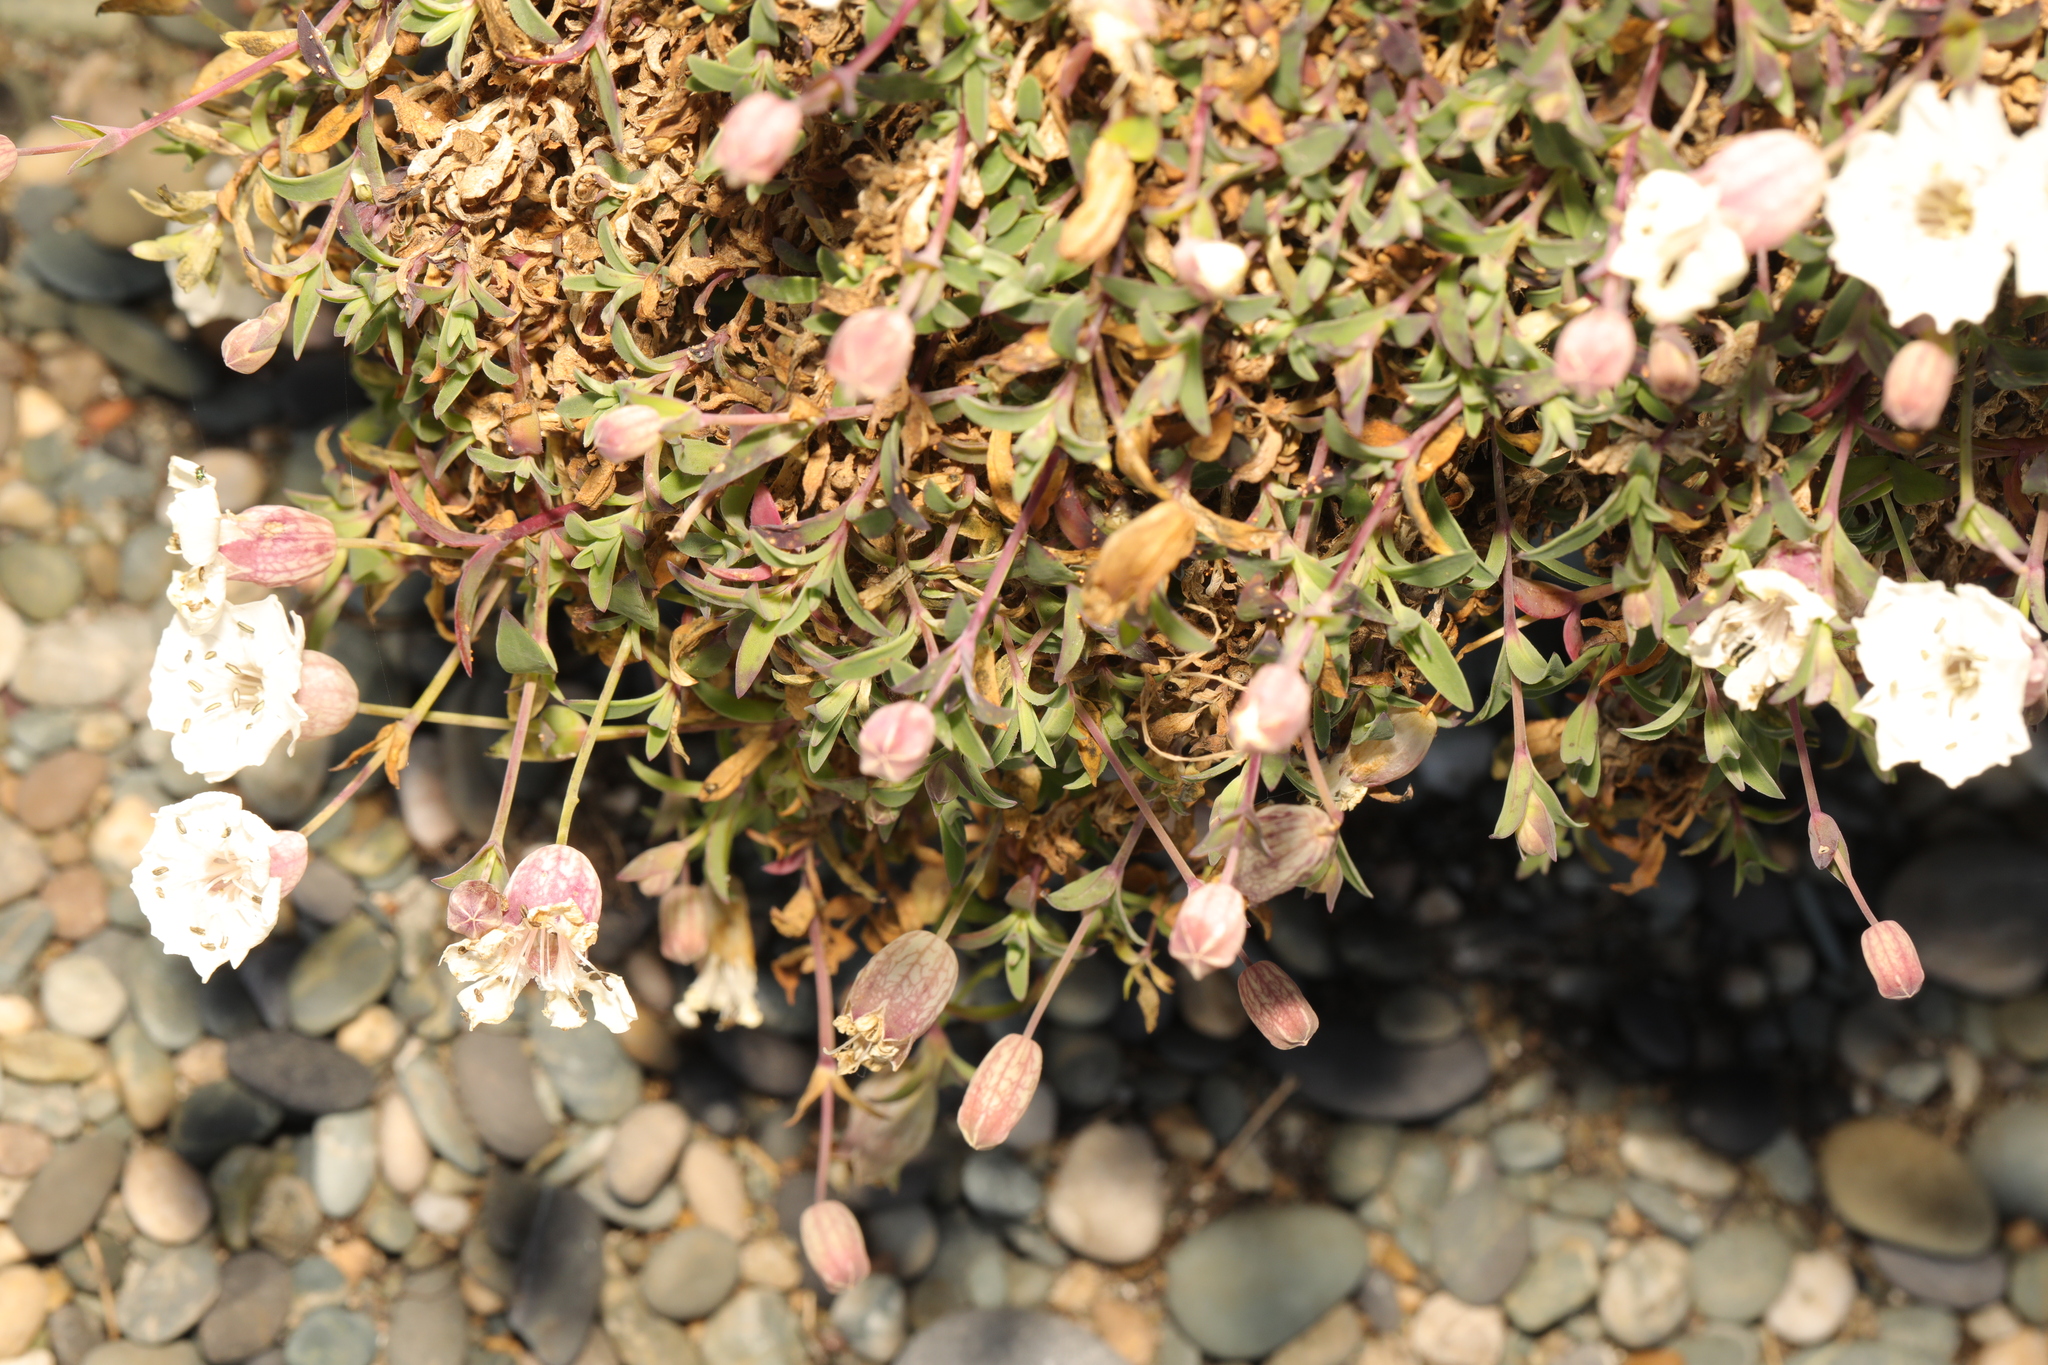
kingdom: Plantae
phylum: Tracheophyta
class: Magnoliopsida
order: Caryophyllales
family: Caryophyllaceae
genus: Silene
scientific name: Silene uniflora
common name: Sea campion
